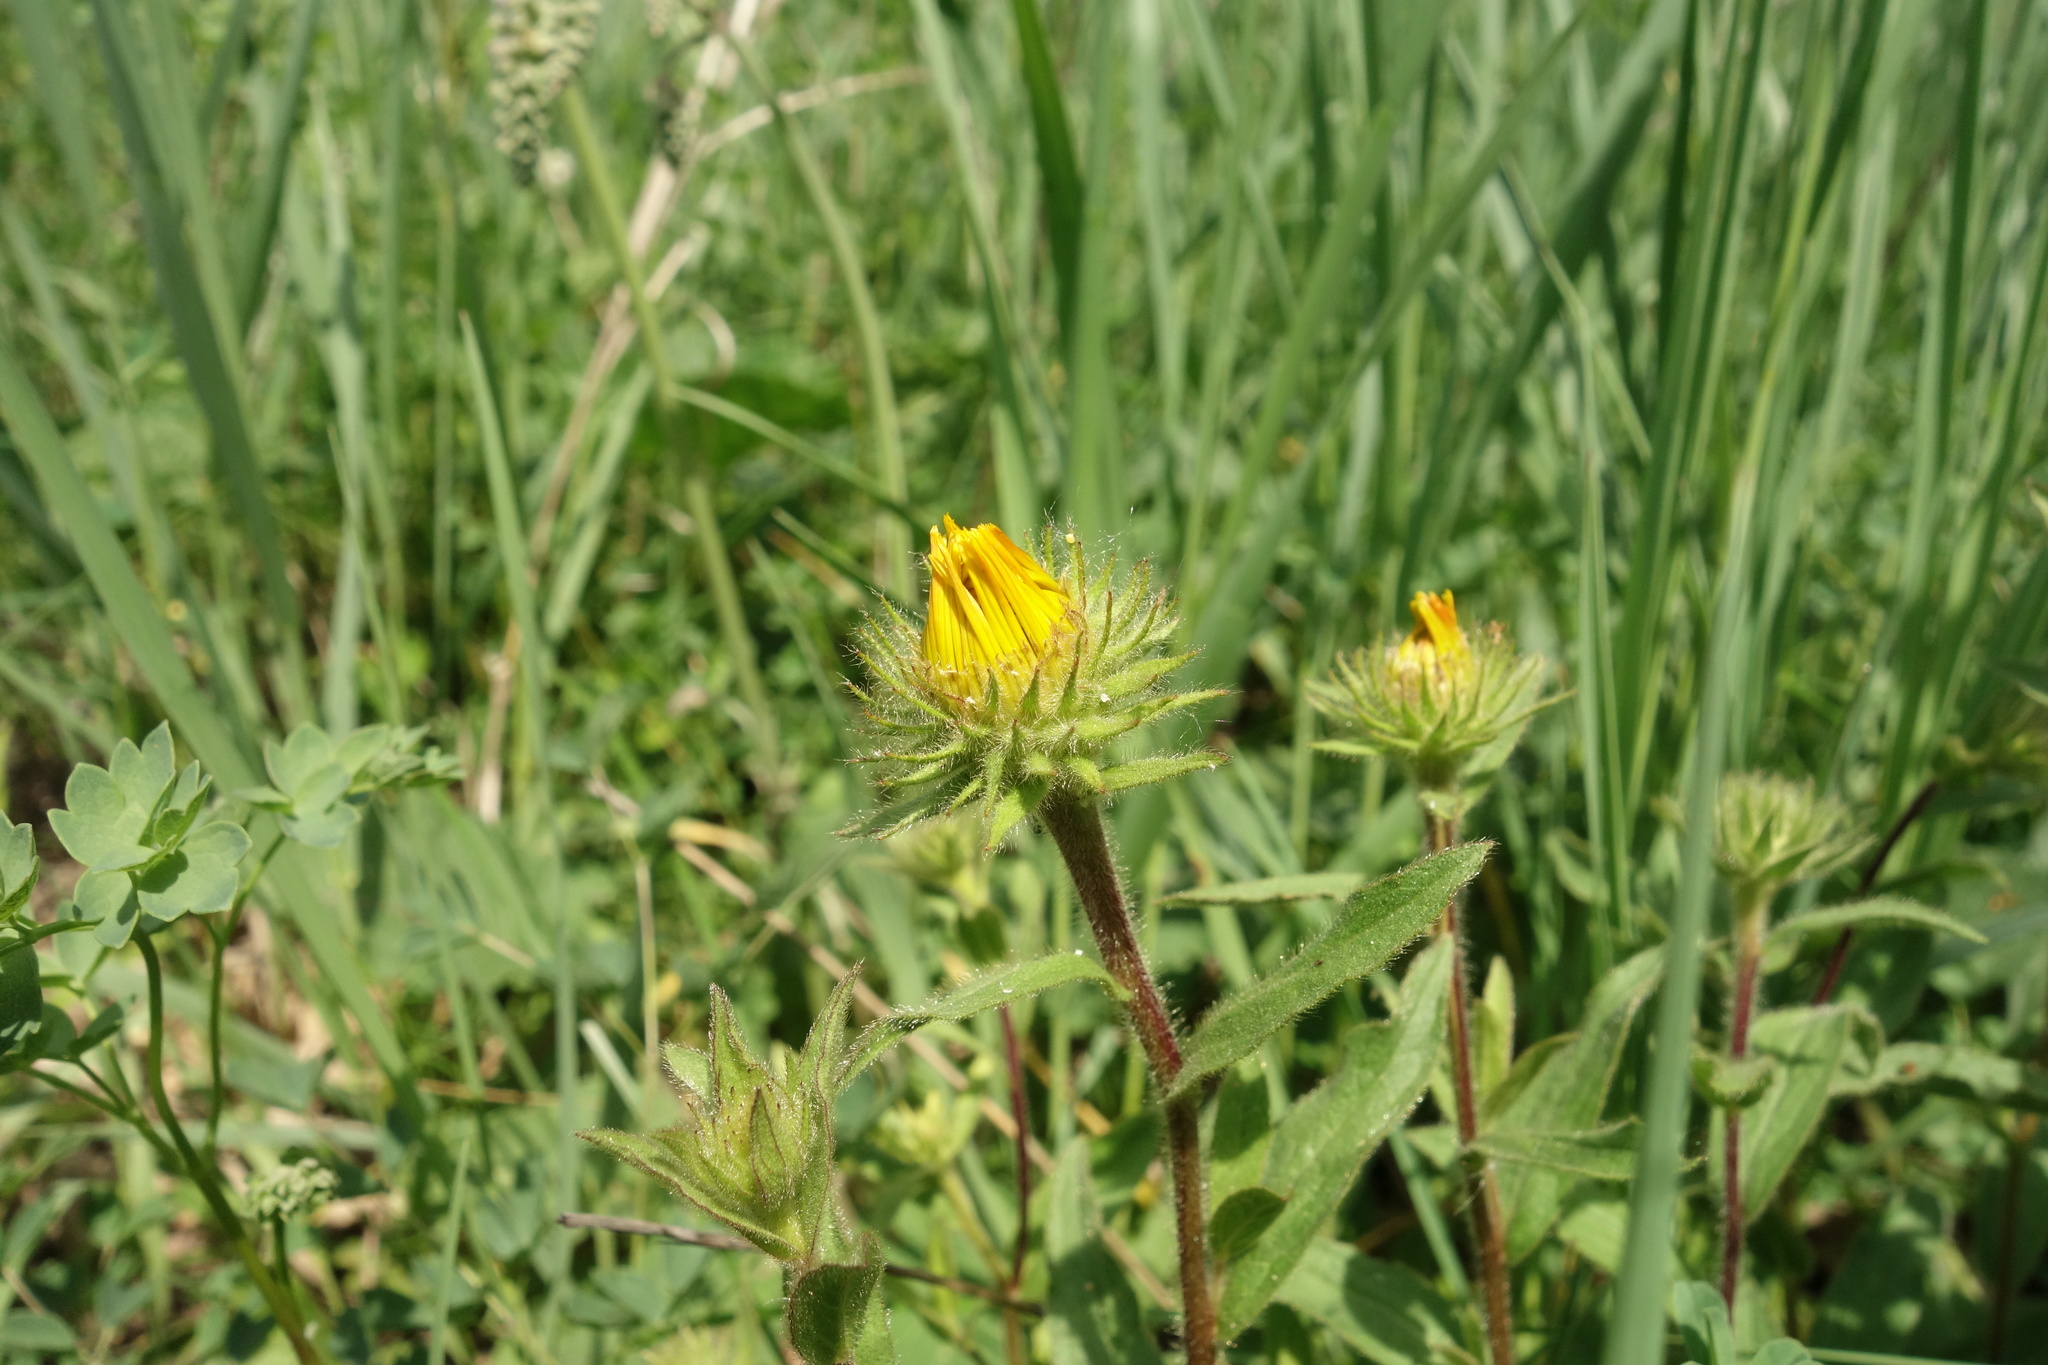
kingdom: Plantae
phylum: Tracheophyta
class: Magnoliopsida
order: Asterales
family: Asteraceae
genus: Pentanema
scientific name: Pentanema hirtum
